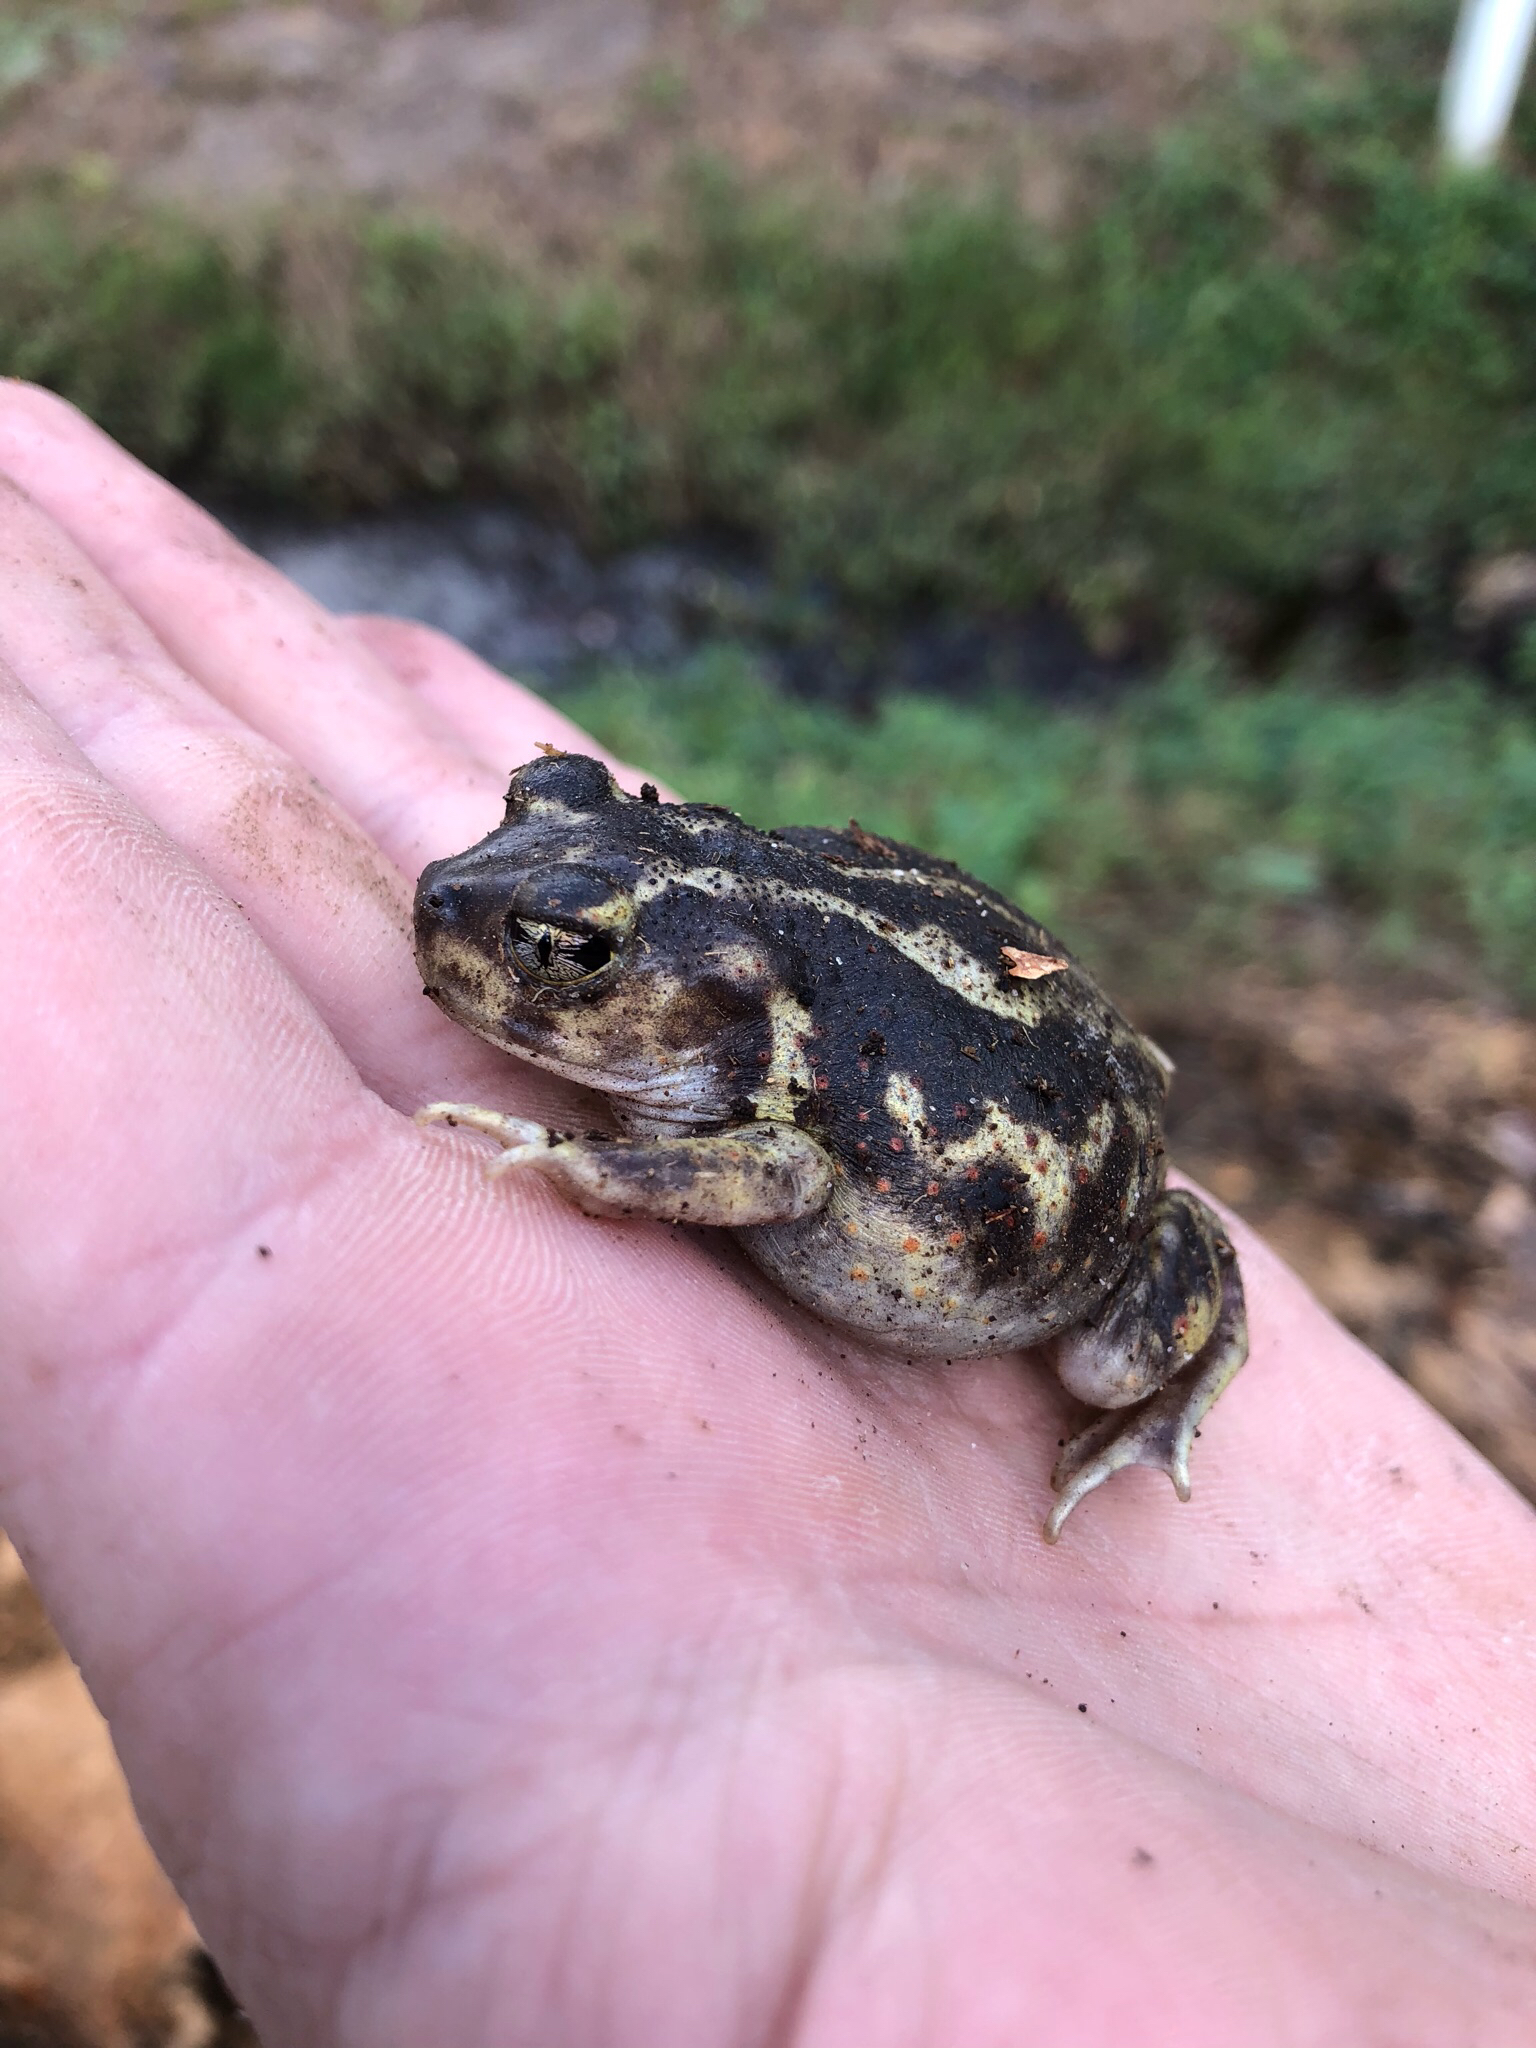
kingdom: Animalia
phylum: Chordata
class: Amphibia
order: Anura
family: Scaphiopodidae
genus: Scaphiopus
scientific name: Scaphiopus holbrookii
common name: Eastern spadefoot toad
